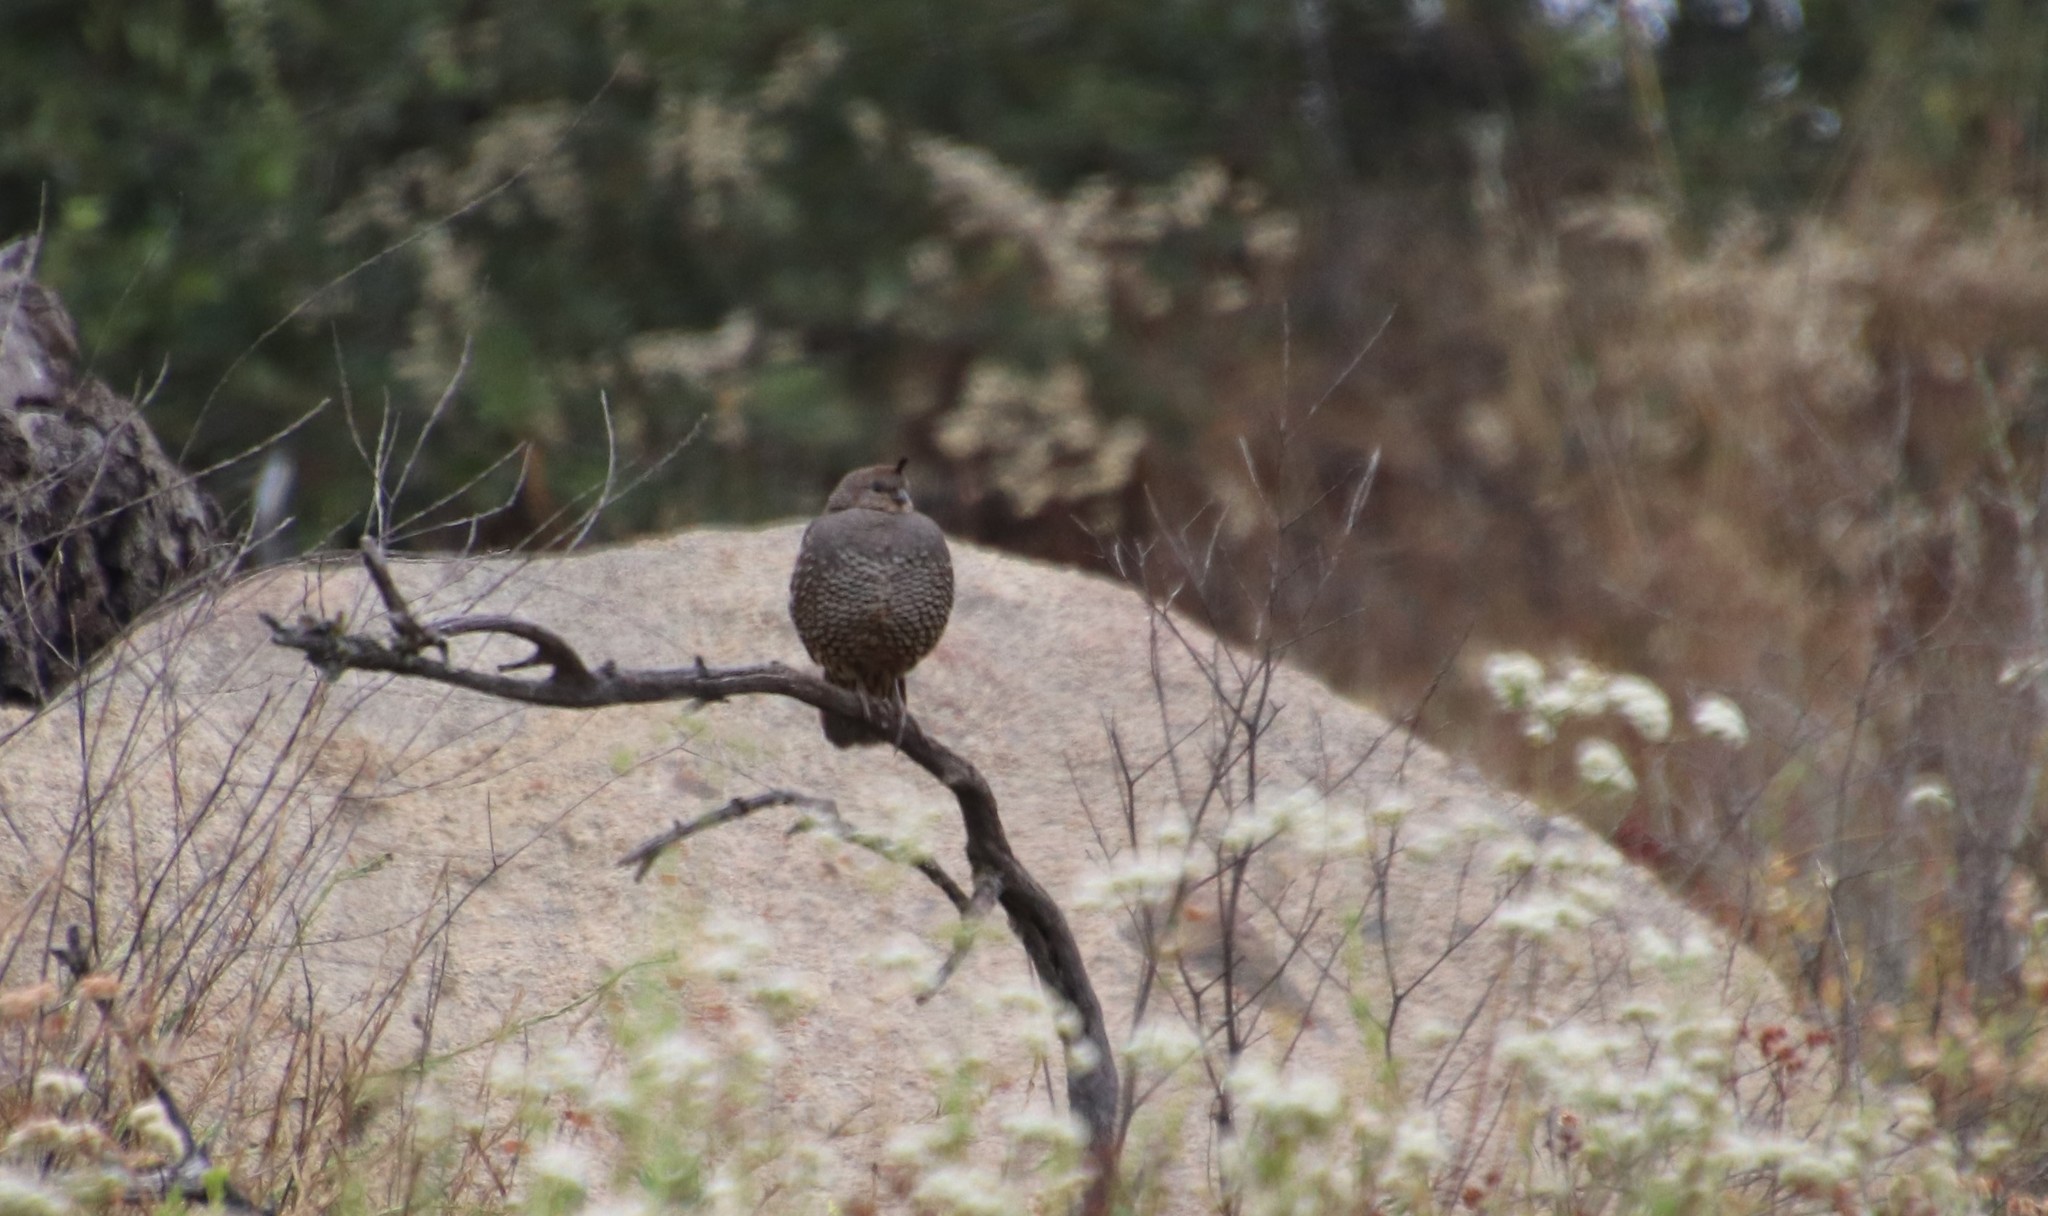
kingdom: Animalia
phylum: Chordata
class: Aves
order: Galliformes
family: Odontophoridae
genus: Callipepla
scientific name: Callipepla californica
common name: California quail
